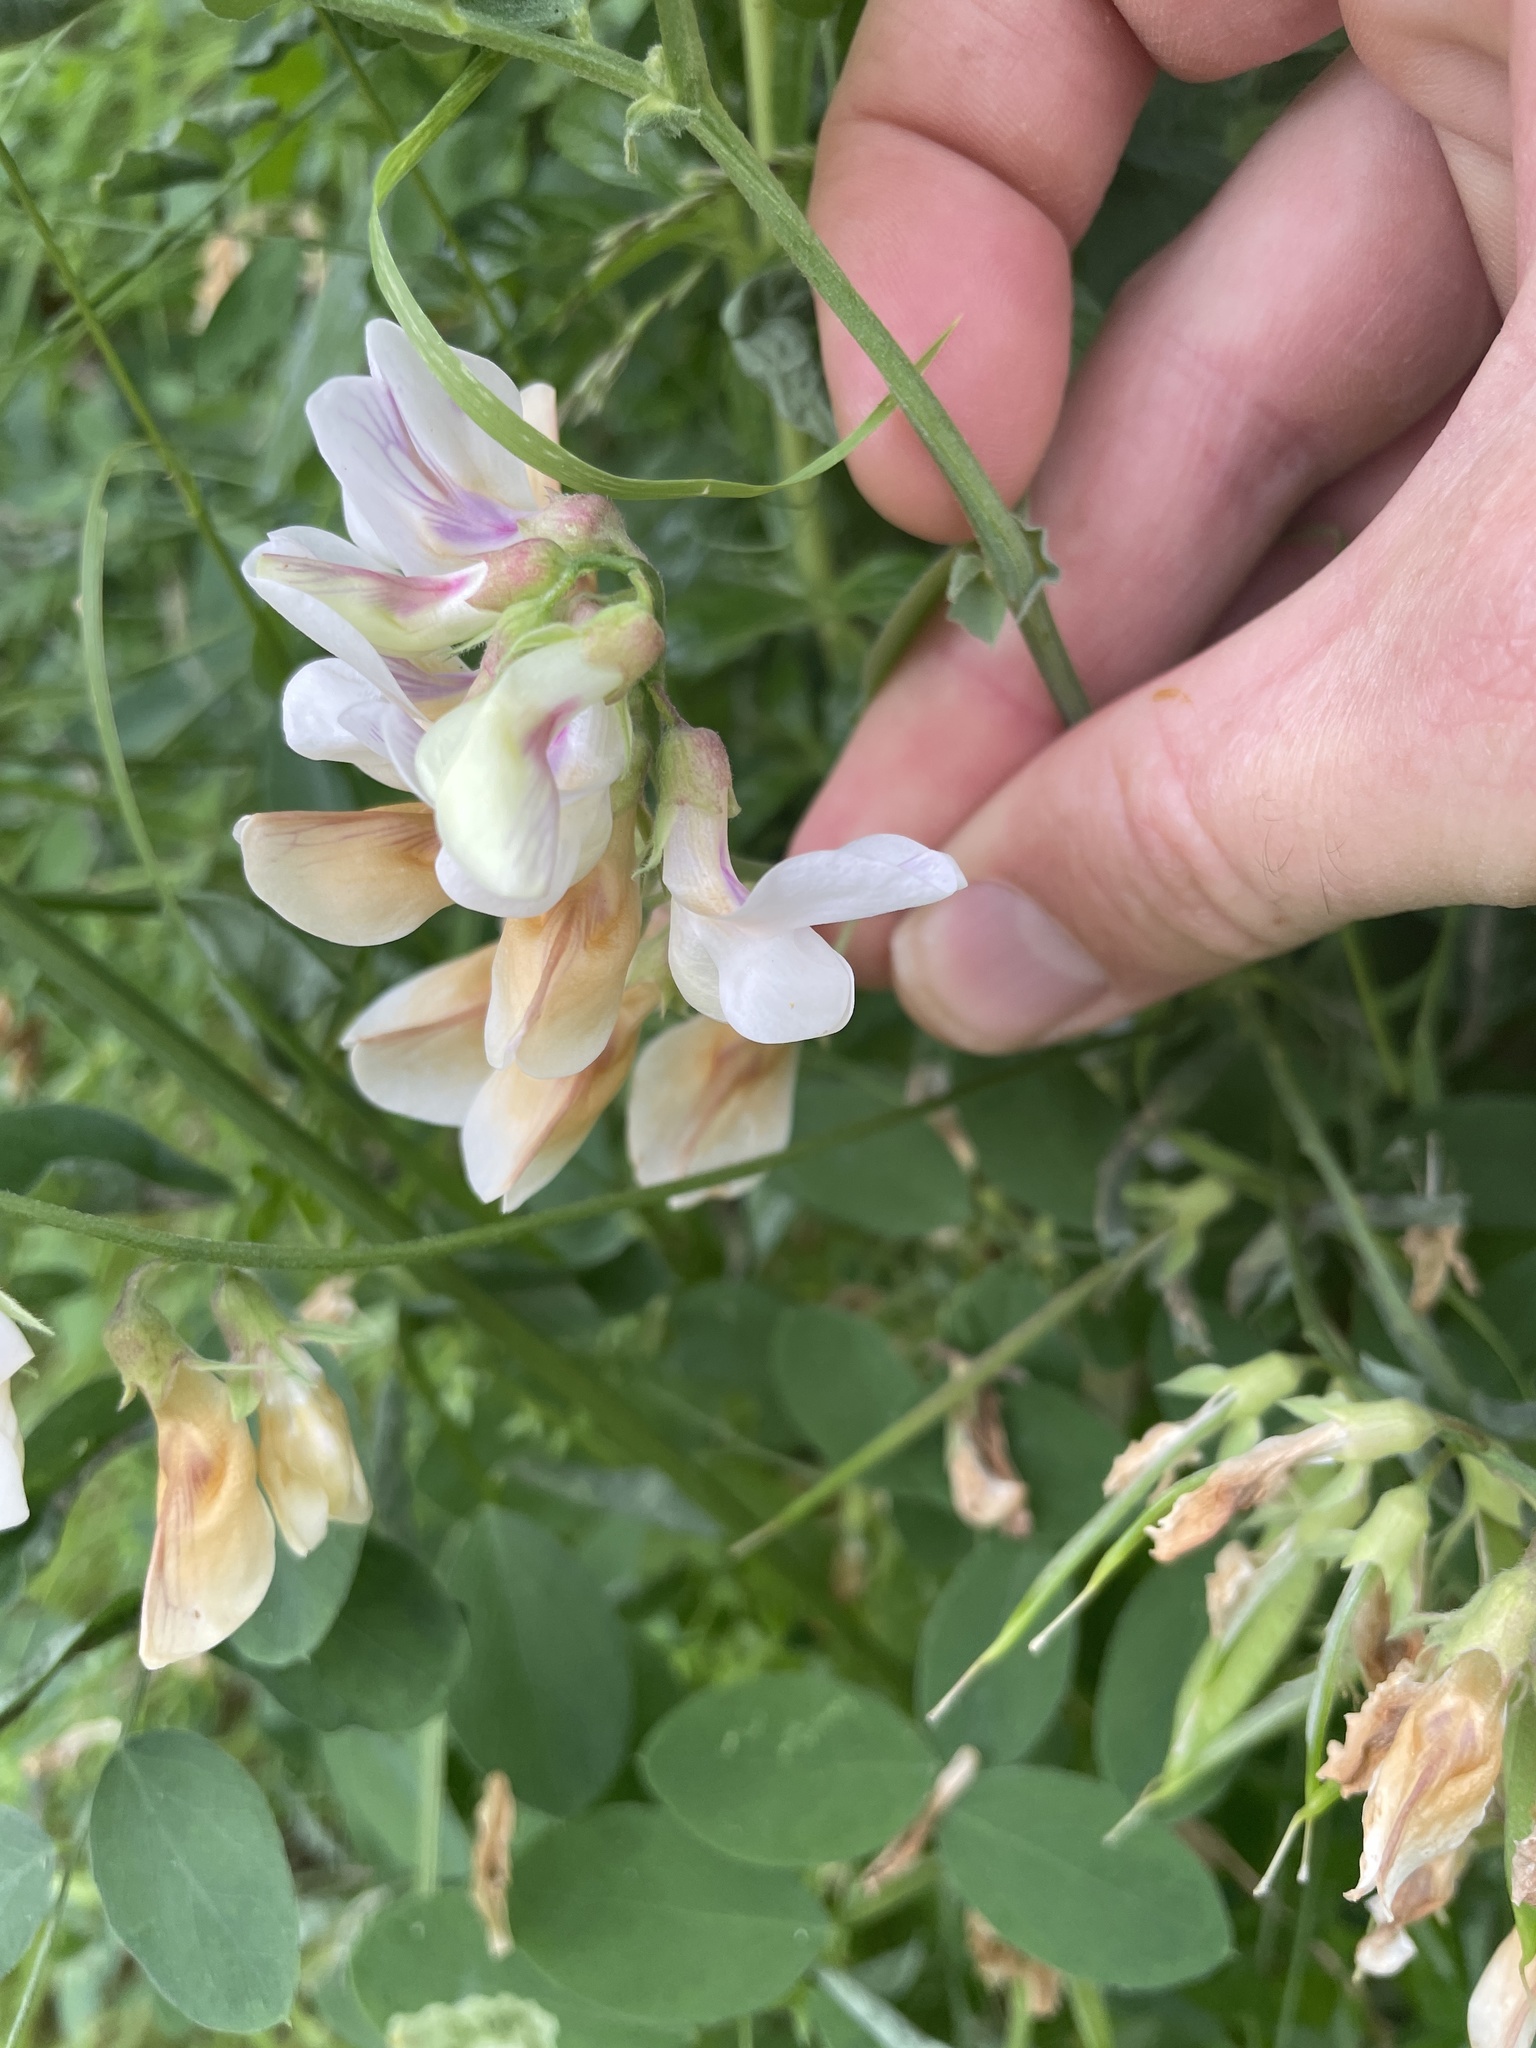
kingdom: Plantae
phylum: Tracheophyta
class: Magnoliopsida
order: Fabales
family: Fabaceae
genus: Lathyrus
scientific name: Lathyrus vestitus
